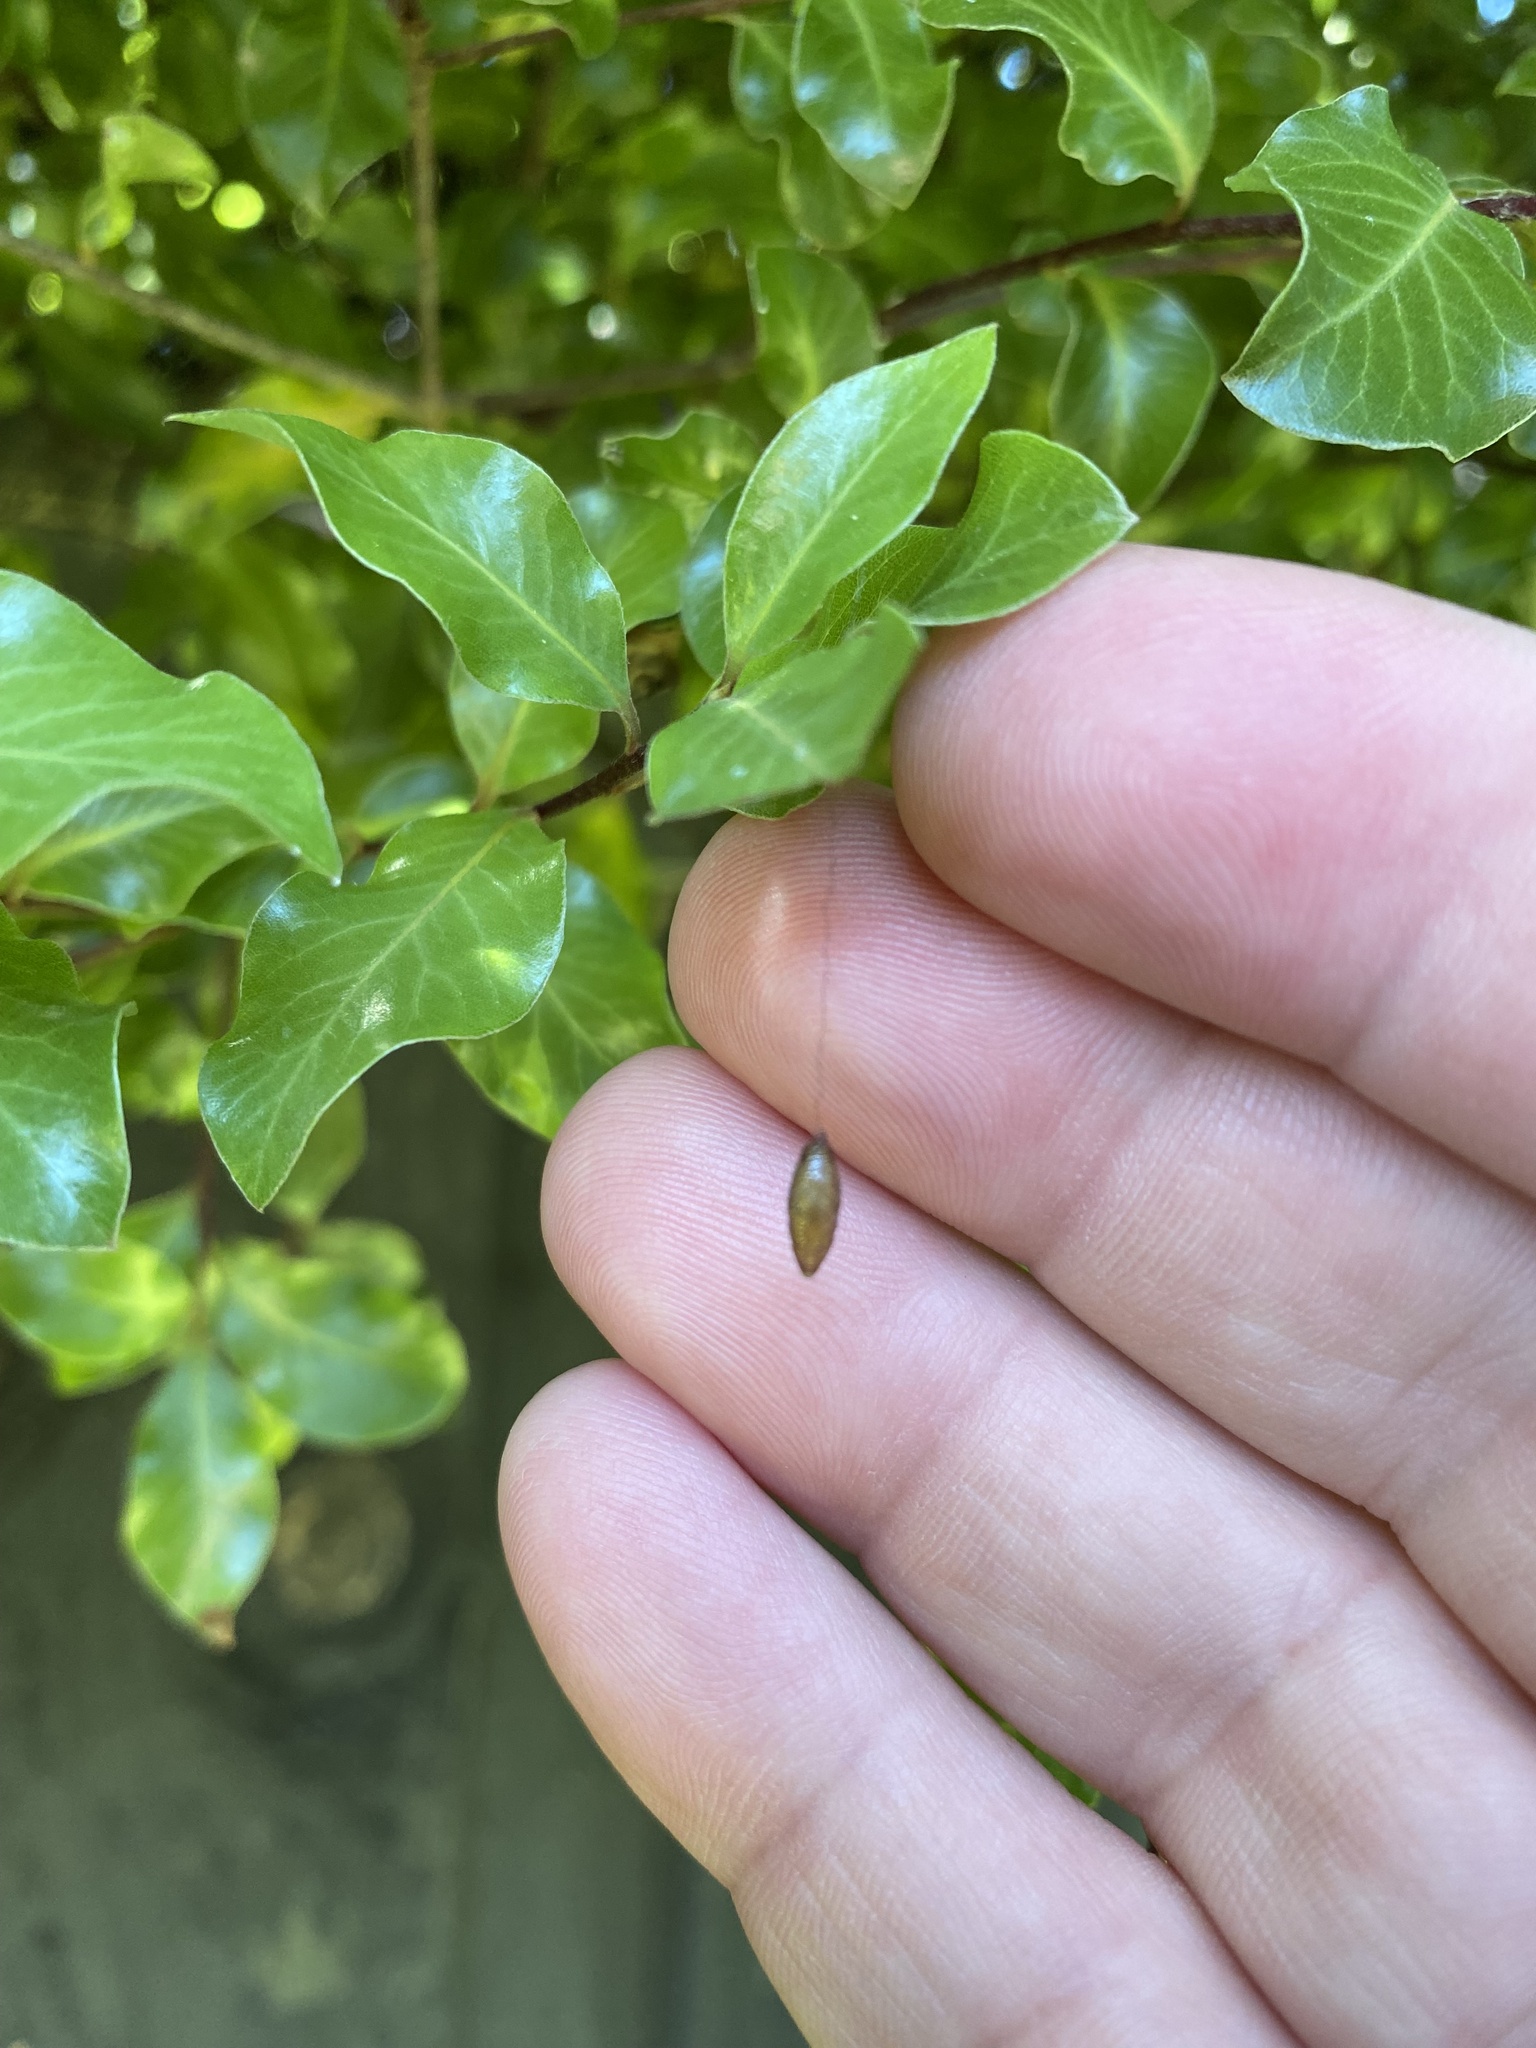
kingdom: Animalia
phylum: Arthropoda
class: Insecta
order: Hymenoptera
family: Braconidae
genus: Meteorus
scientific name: Meteorus pulchricornis
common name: Braconid wasp
